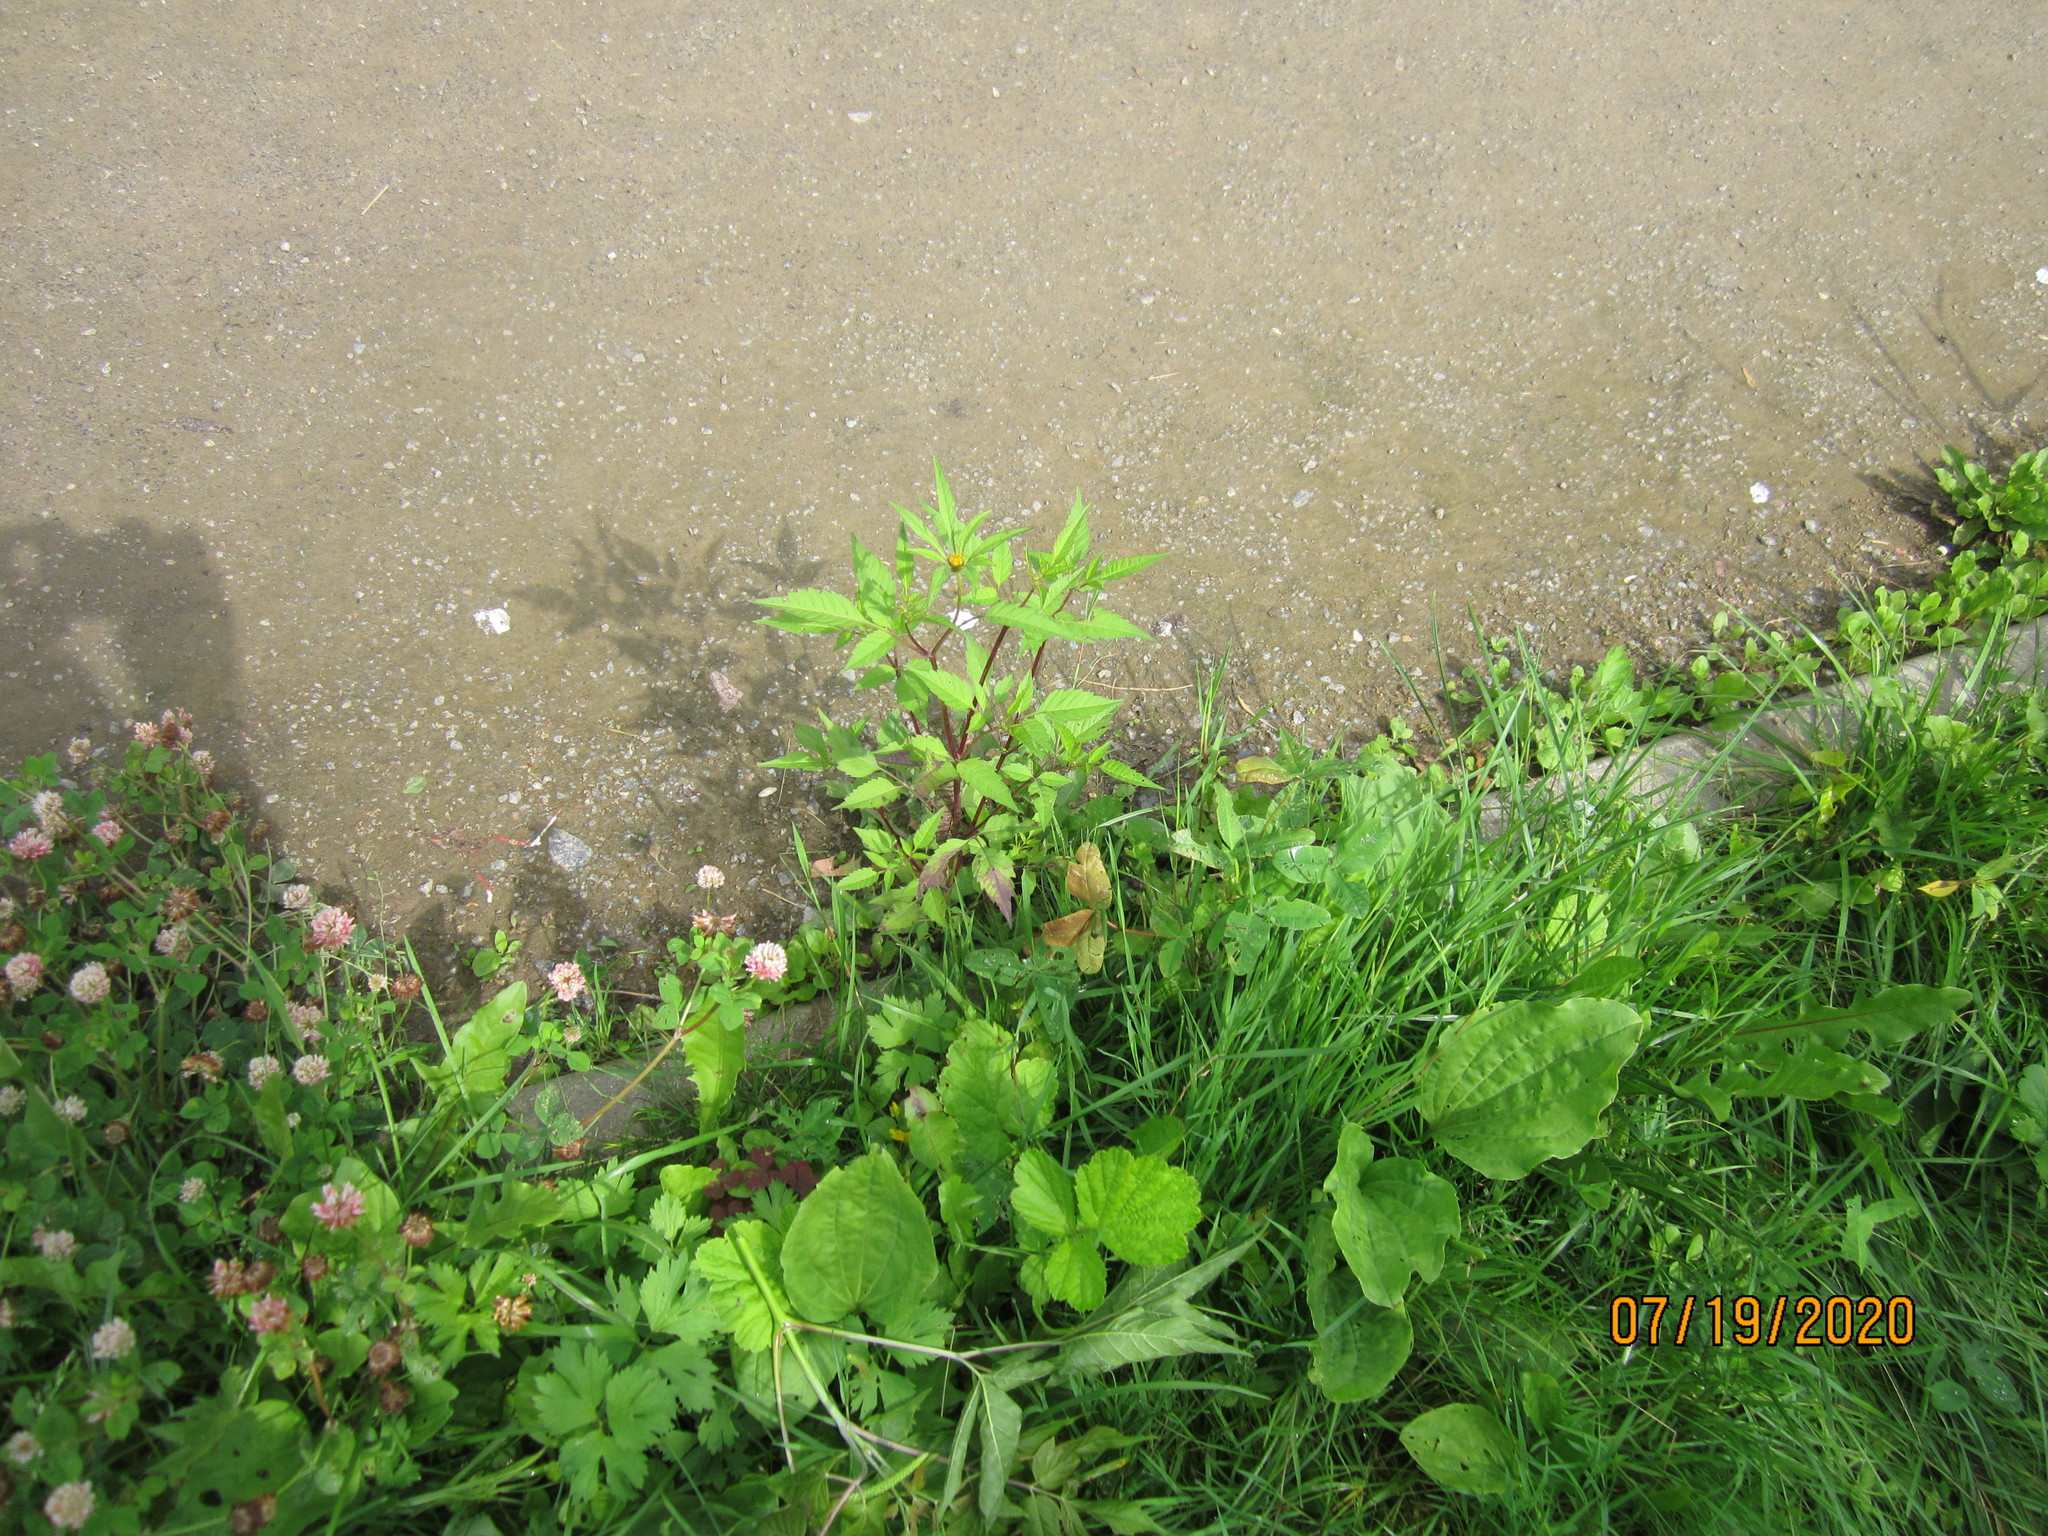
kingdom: Plantae
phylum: Tracheophyta
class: Magnoliopsida
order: Asterales
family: Asteraceae
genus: Bidens
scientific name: Bidens frondosa
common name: Beggarticks
